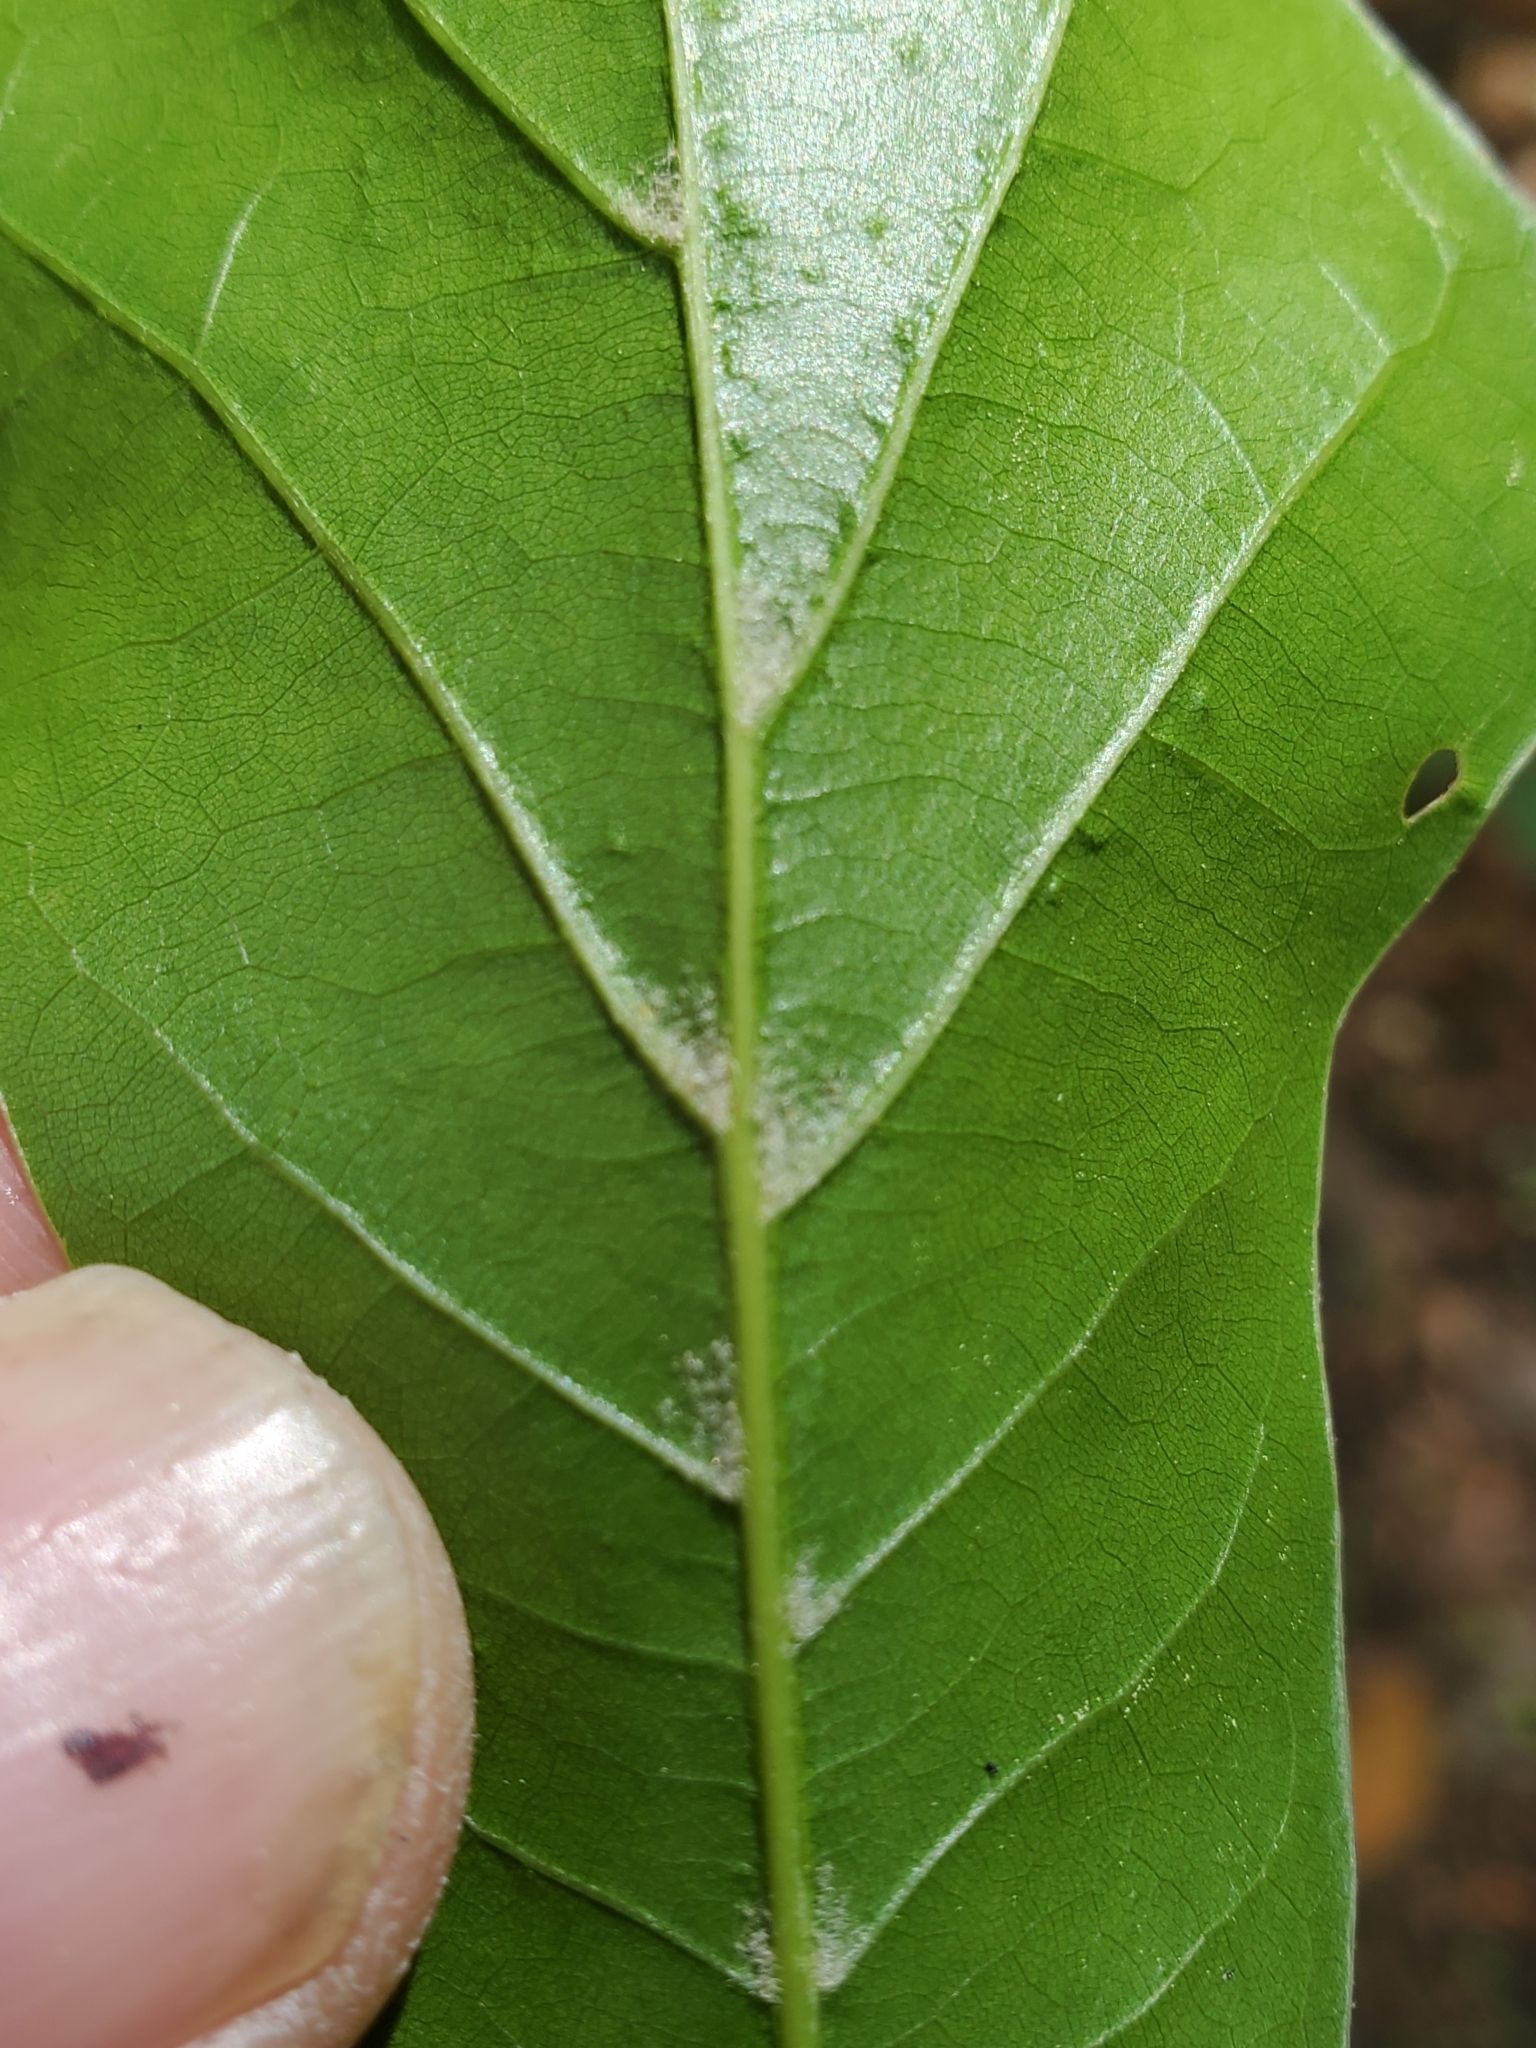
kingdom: Plantae
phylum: Tracheophyta
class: Magnoliopsida
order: Fagales
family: Fagaceae
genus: Quercus
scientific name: Quercus nigra
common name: Water oak
